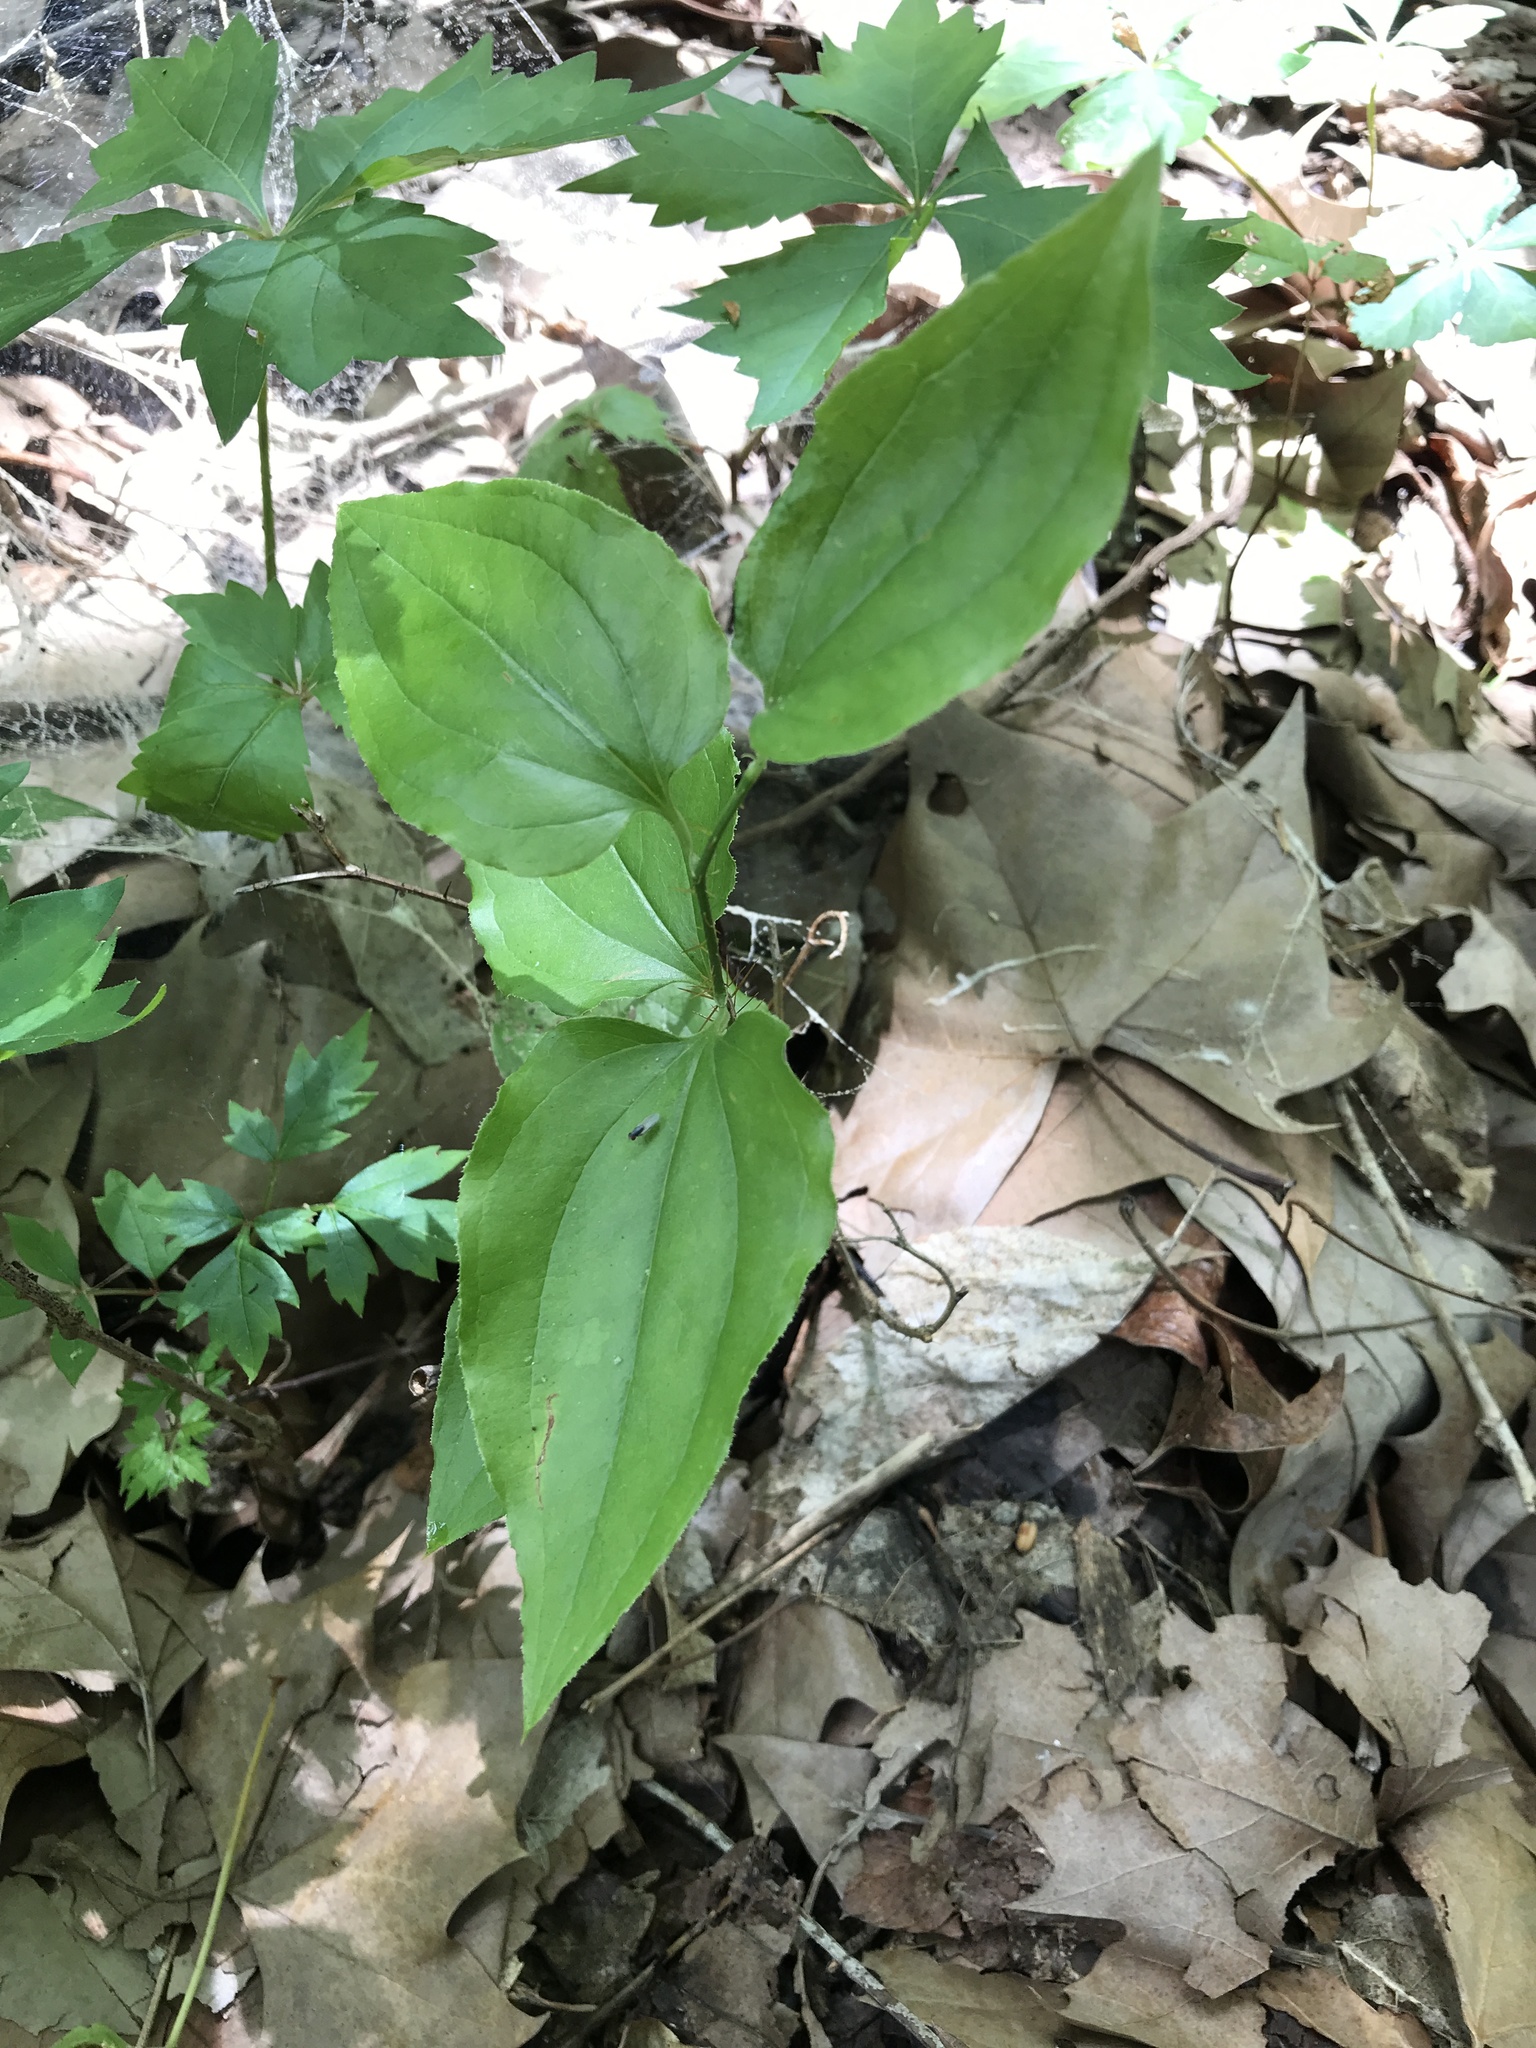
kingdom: Plantae
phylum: Tracheophyta
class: Liliopsida
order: Liliales
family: Smilacaceae
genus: Smilax
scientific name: Smilax tamnoides
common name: Hellfetter
